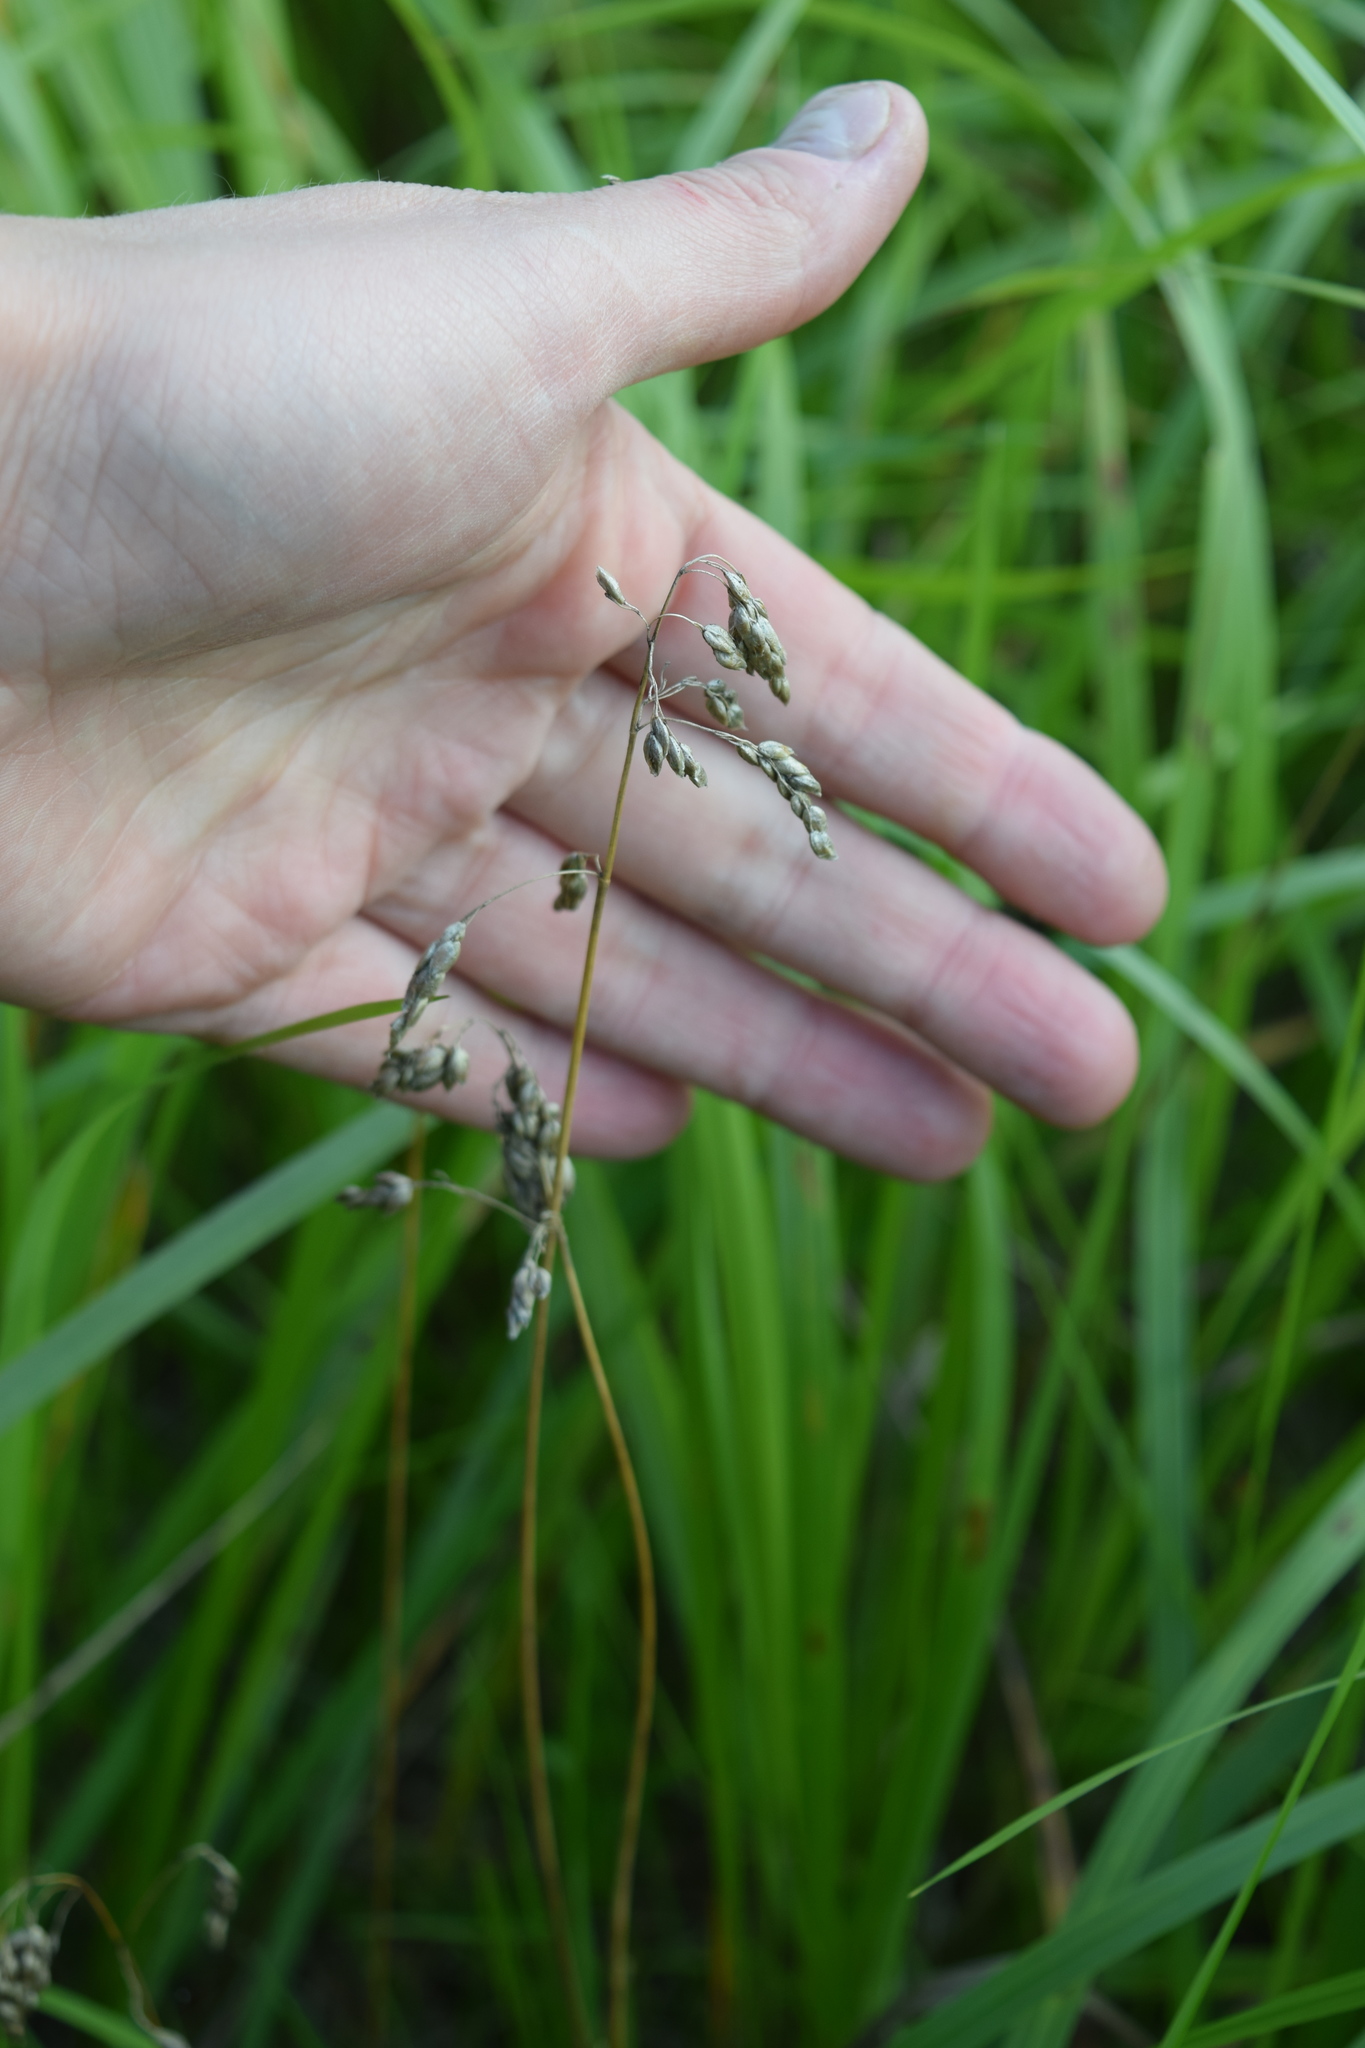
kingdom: Plantae
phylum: Tracheophyta
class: Liliopsida
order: Poales
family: Poaceae
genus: Anthoxanthum
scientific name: Anthoxanthum nitens
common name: Holy grass
